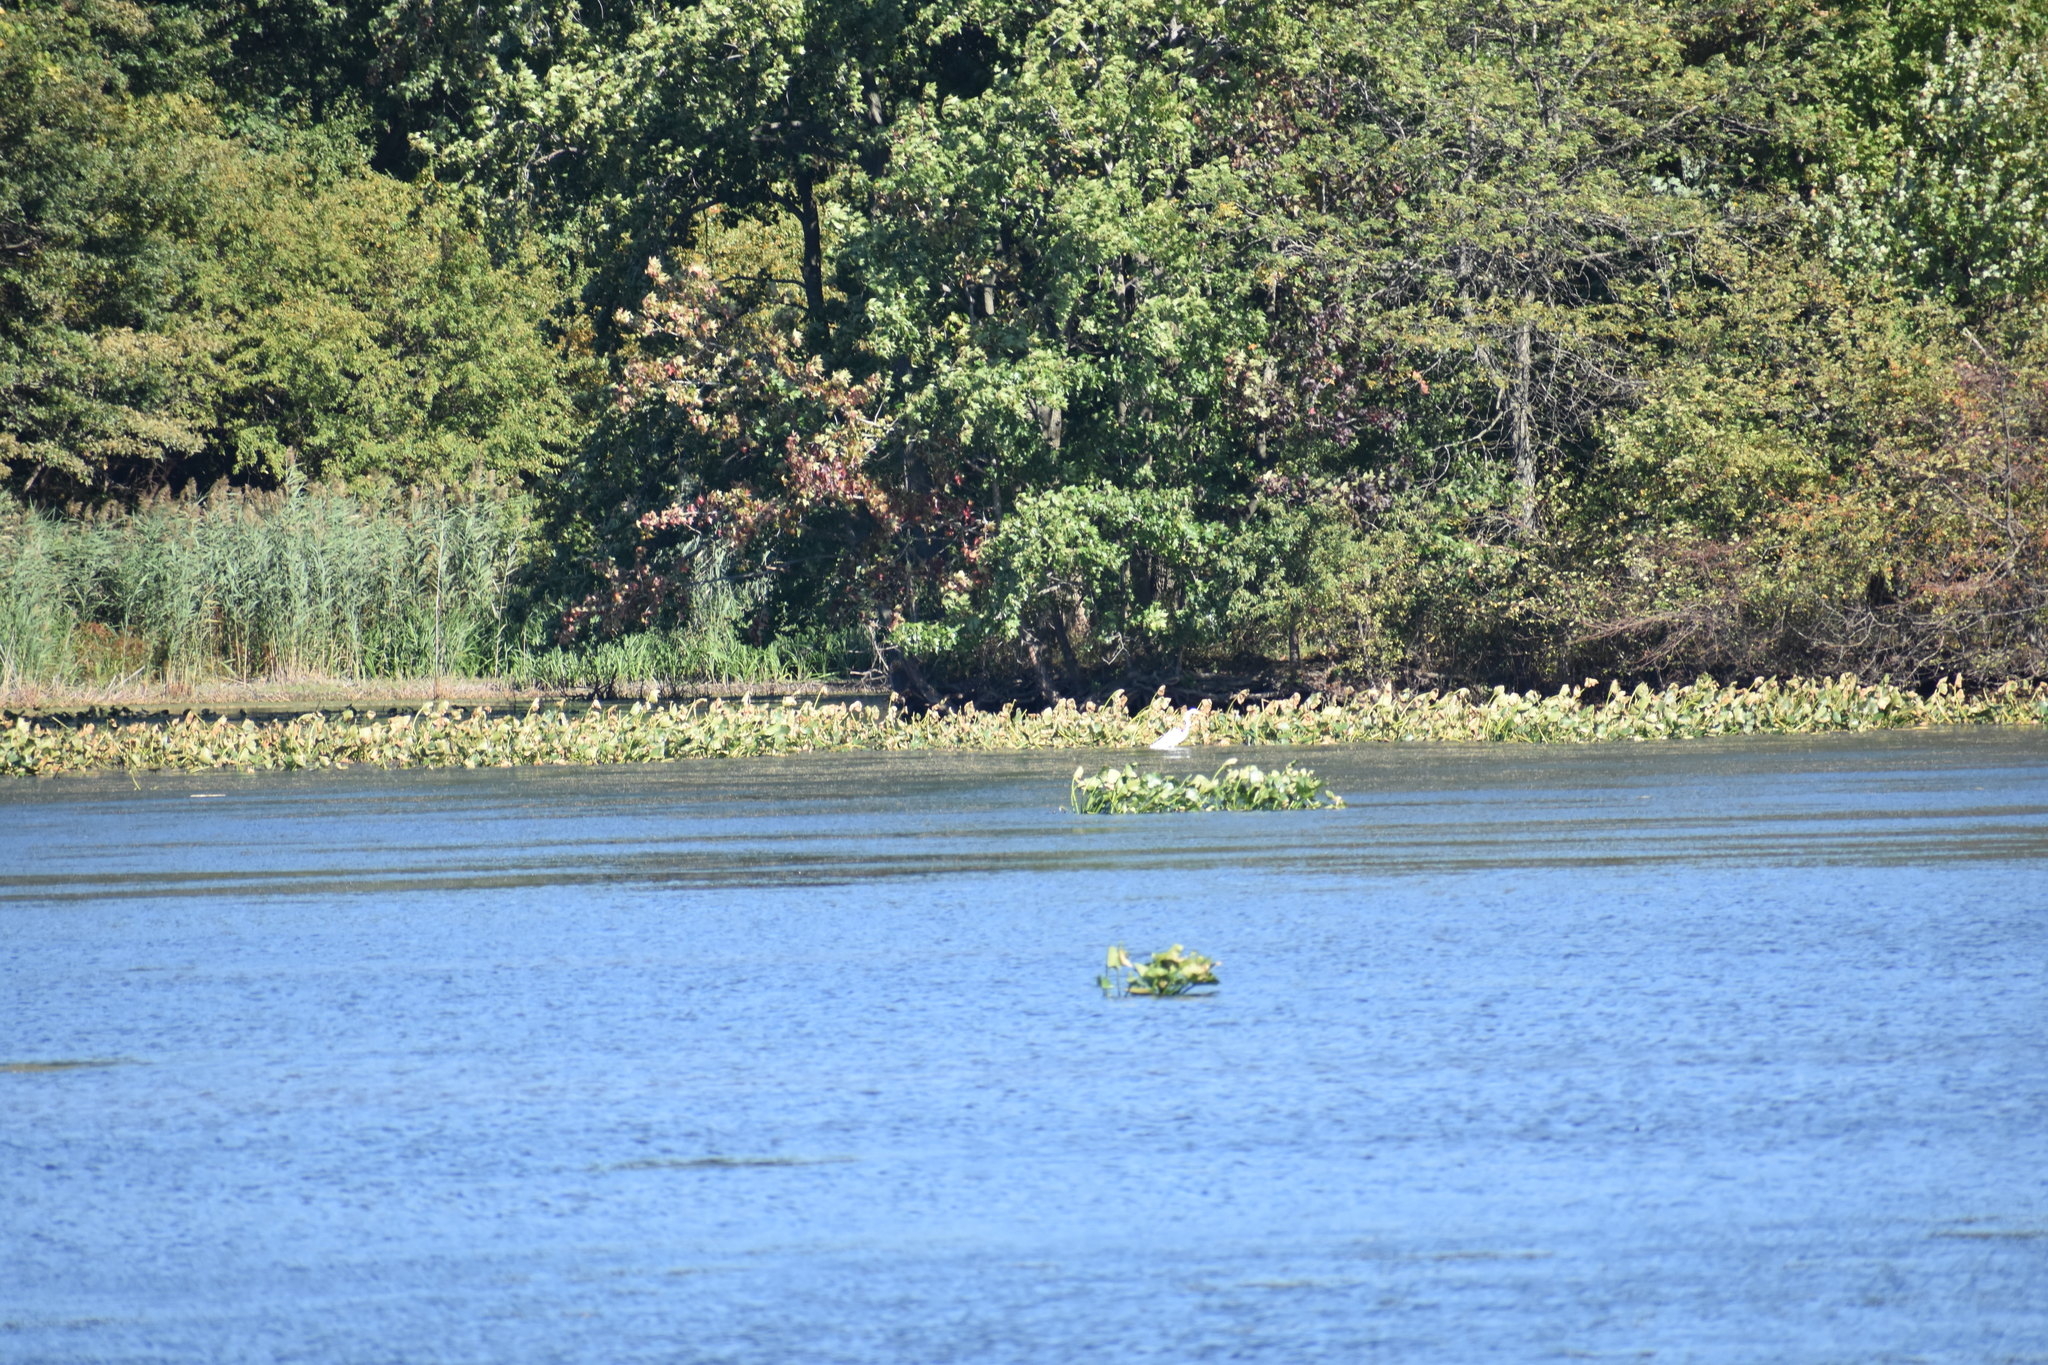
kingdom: Animalia
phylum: Chordata
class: Aves
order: Pelecaniformes
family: Ardeidae
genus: Ardea
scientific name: Ardea alba
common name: Great egret
